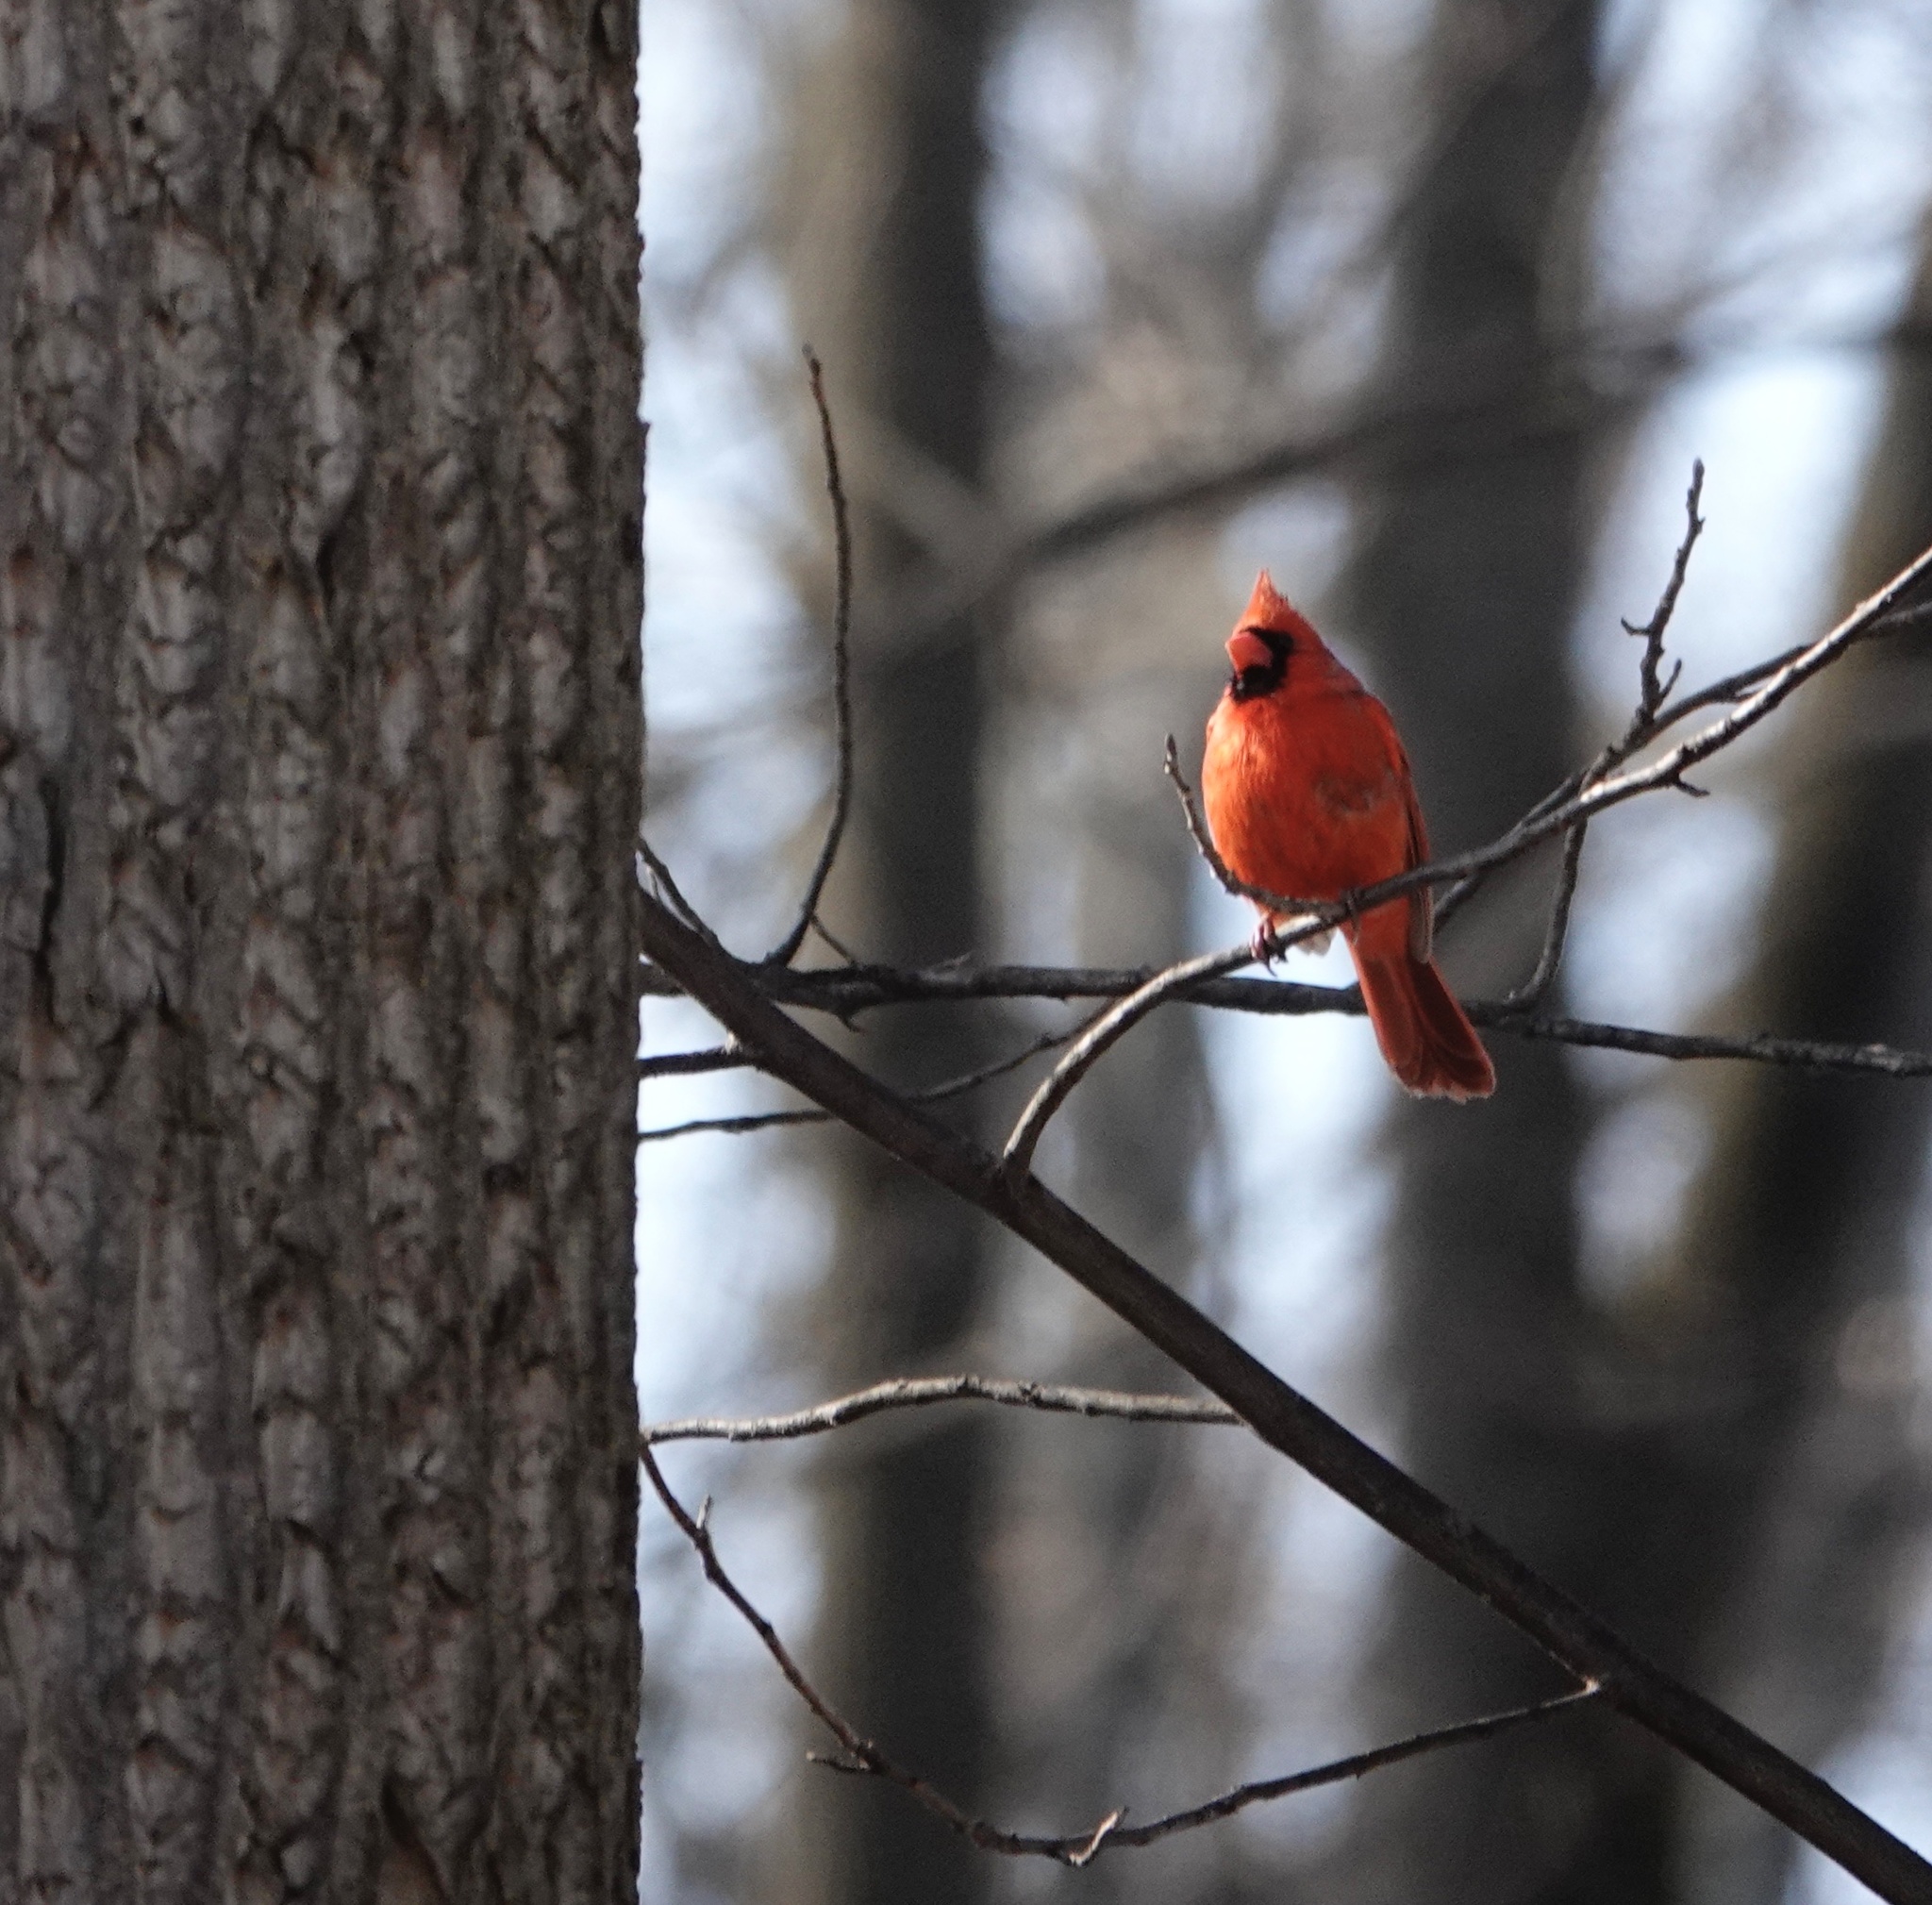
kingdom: Animalia
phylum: Chordata
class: Aves
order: Passeriformes
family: Cardinalidae
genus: Cardinalis
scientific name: Cardinalis cardinalis
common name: Northern cardinal
